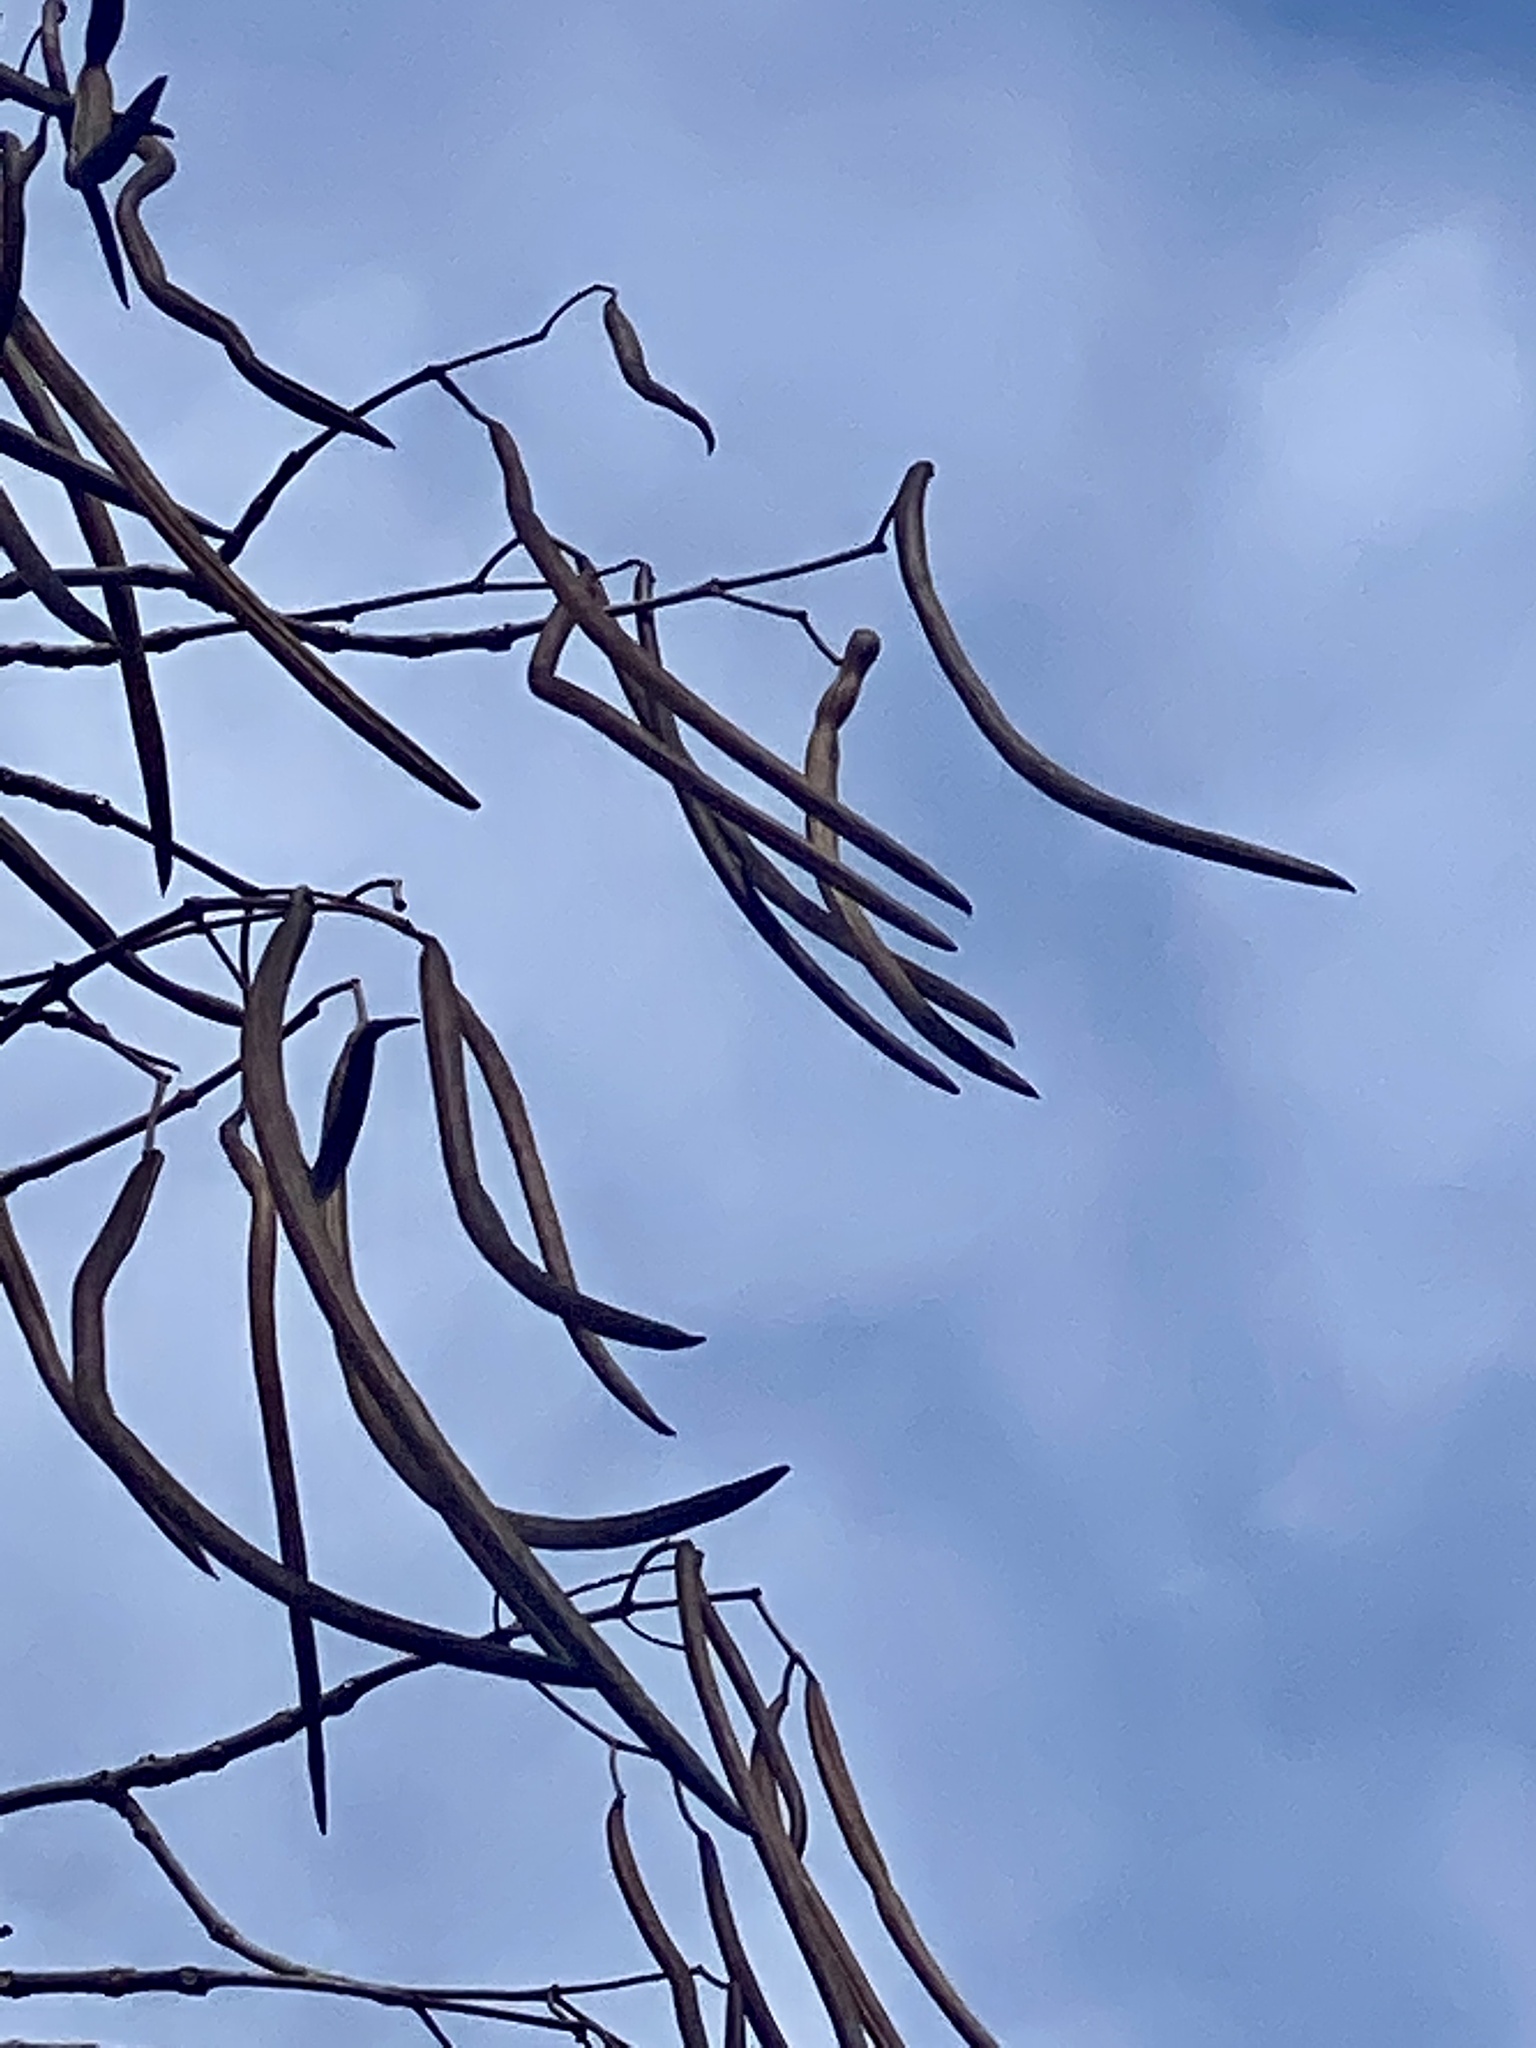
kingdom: Plantae
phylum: Tracheophyta
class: Magnoliopsida
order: Lamiales
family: Bignoniaceae
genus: Catalpa
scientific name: Catalpa
